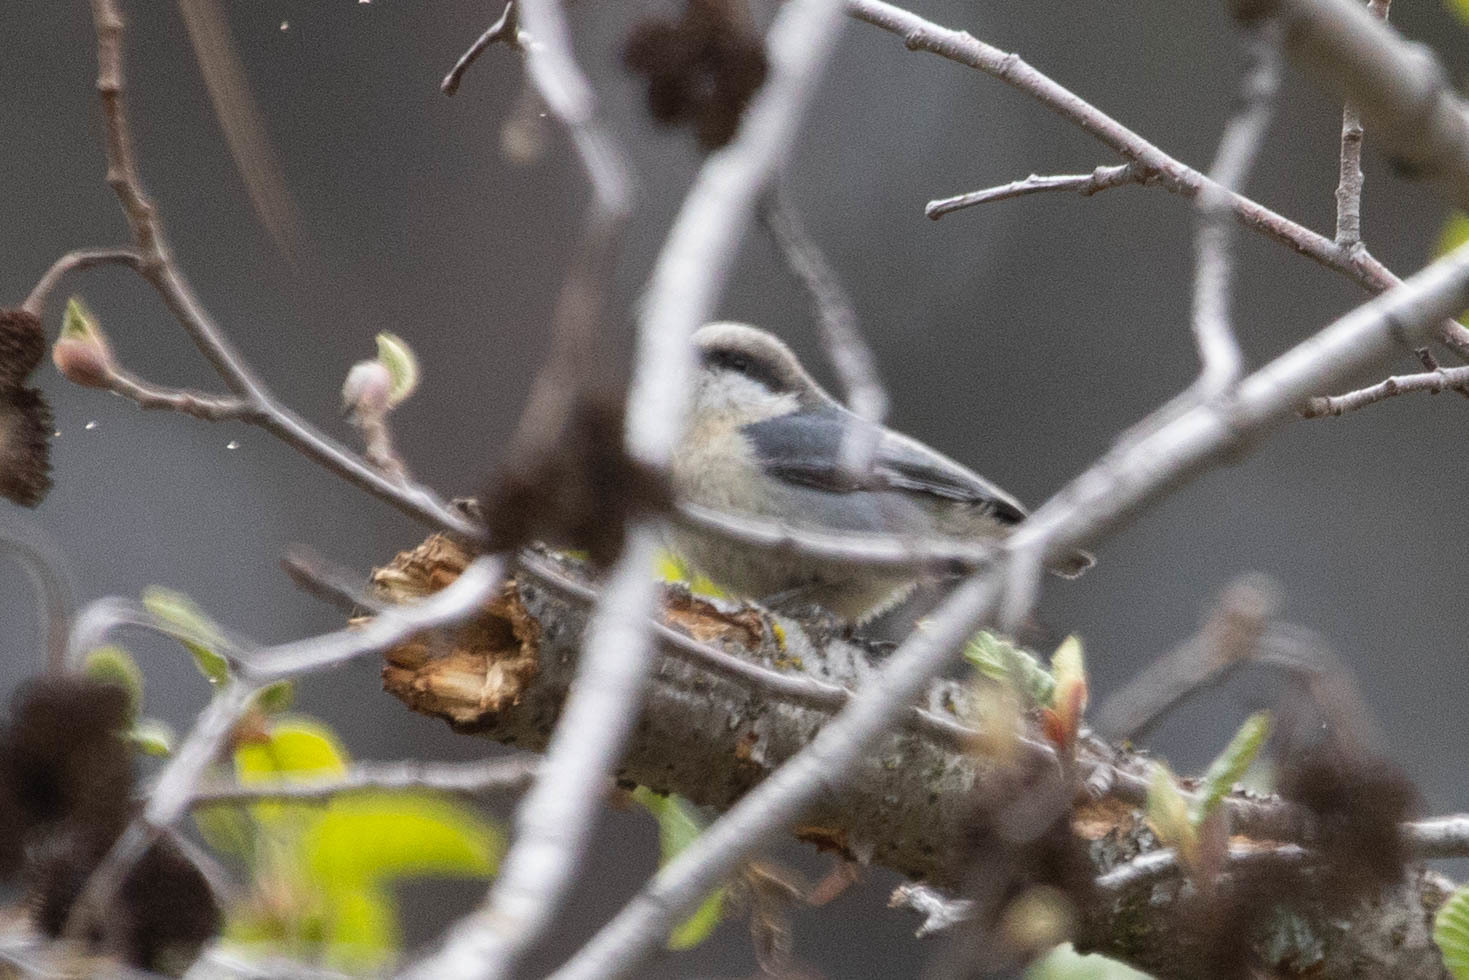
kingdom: Animalia
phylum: Chordata
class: Aves
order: Passeriformes
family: Sittidae
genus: Sitta
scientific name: Sitta pygmaea
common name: Pygmy nuthatch
